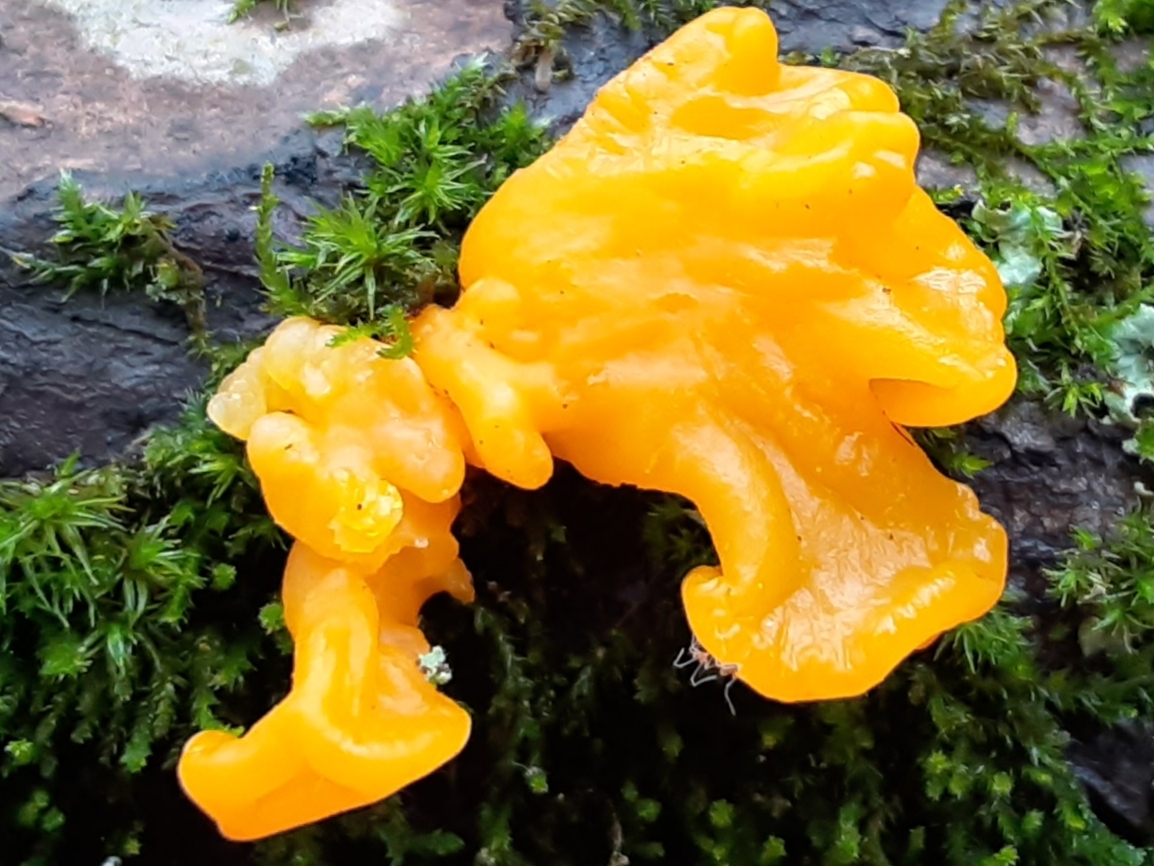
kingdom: Fungi
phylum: Basidiomycota
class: Dacrymycetes
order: Dacrymycetales
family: Dacrymycetaceae
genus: Dacrymyces
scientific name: Dacrymyces chrysospermus
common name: Orange jelly spot
